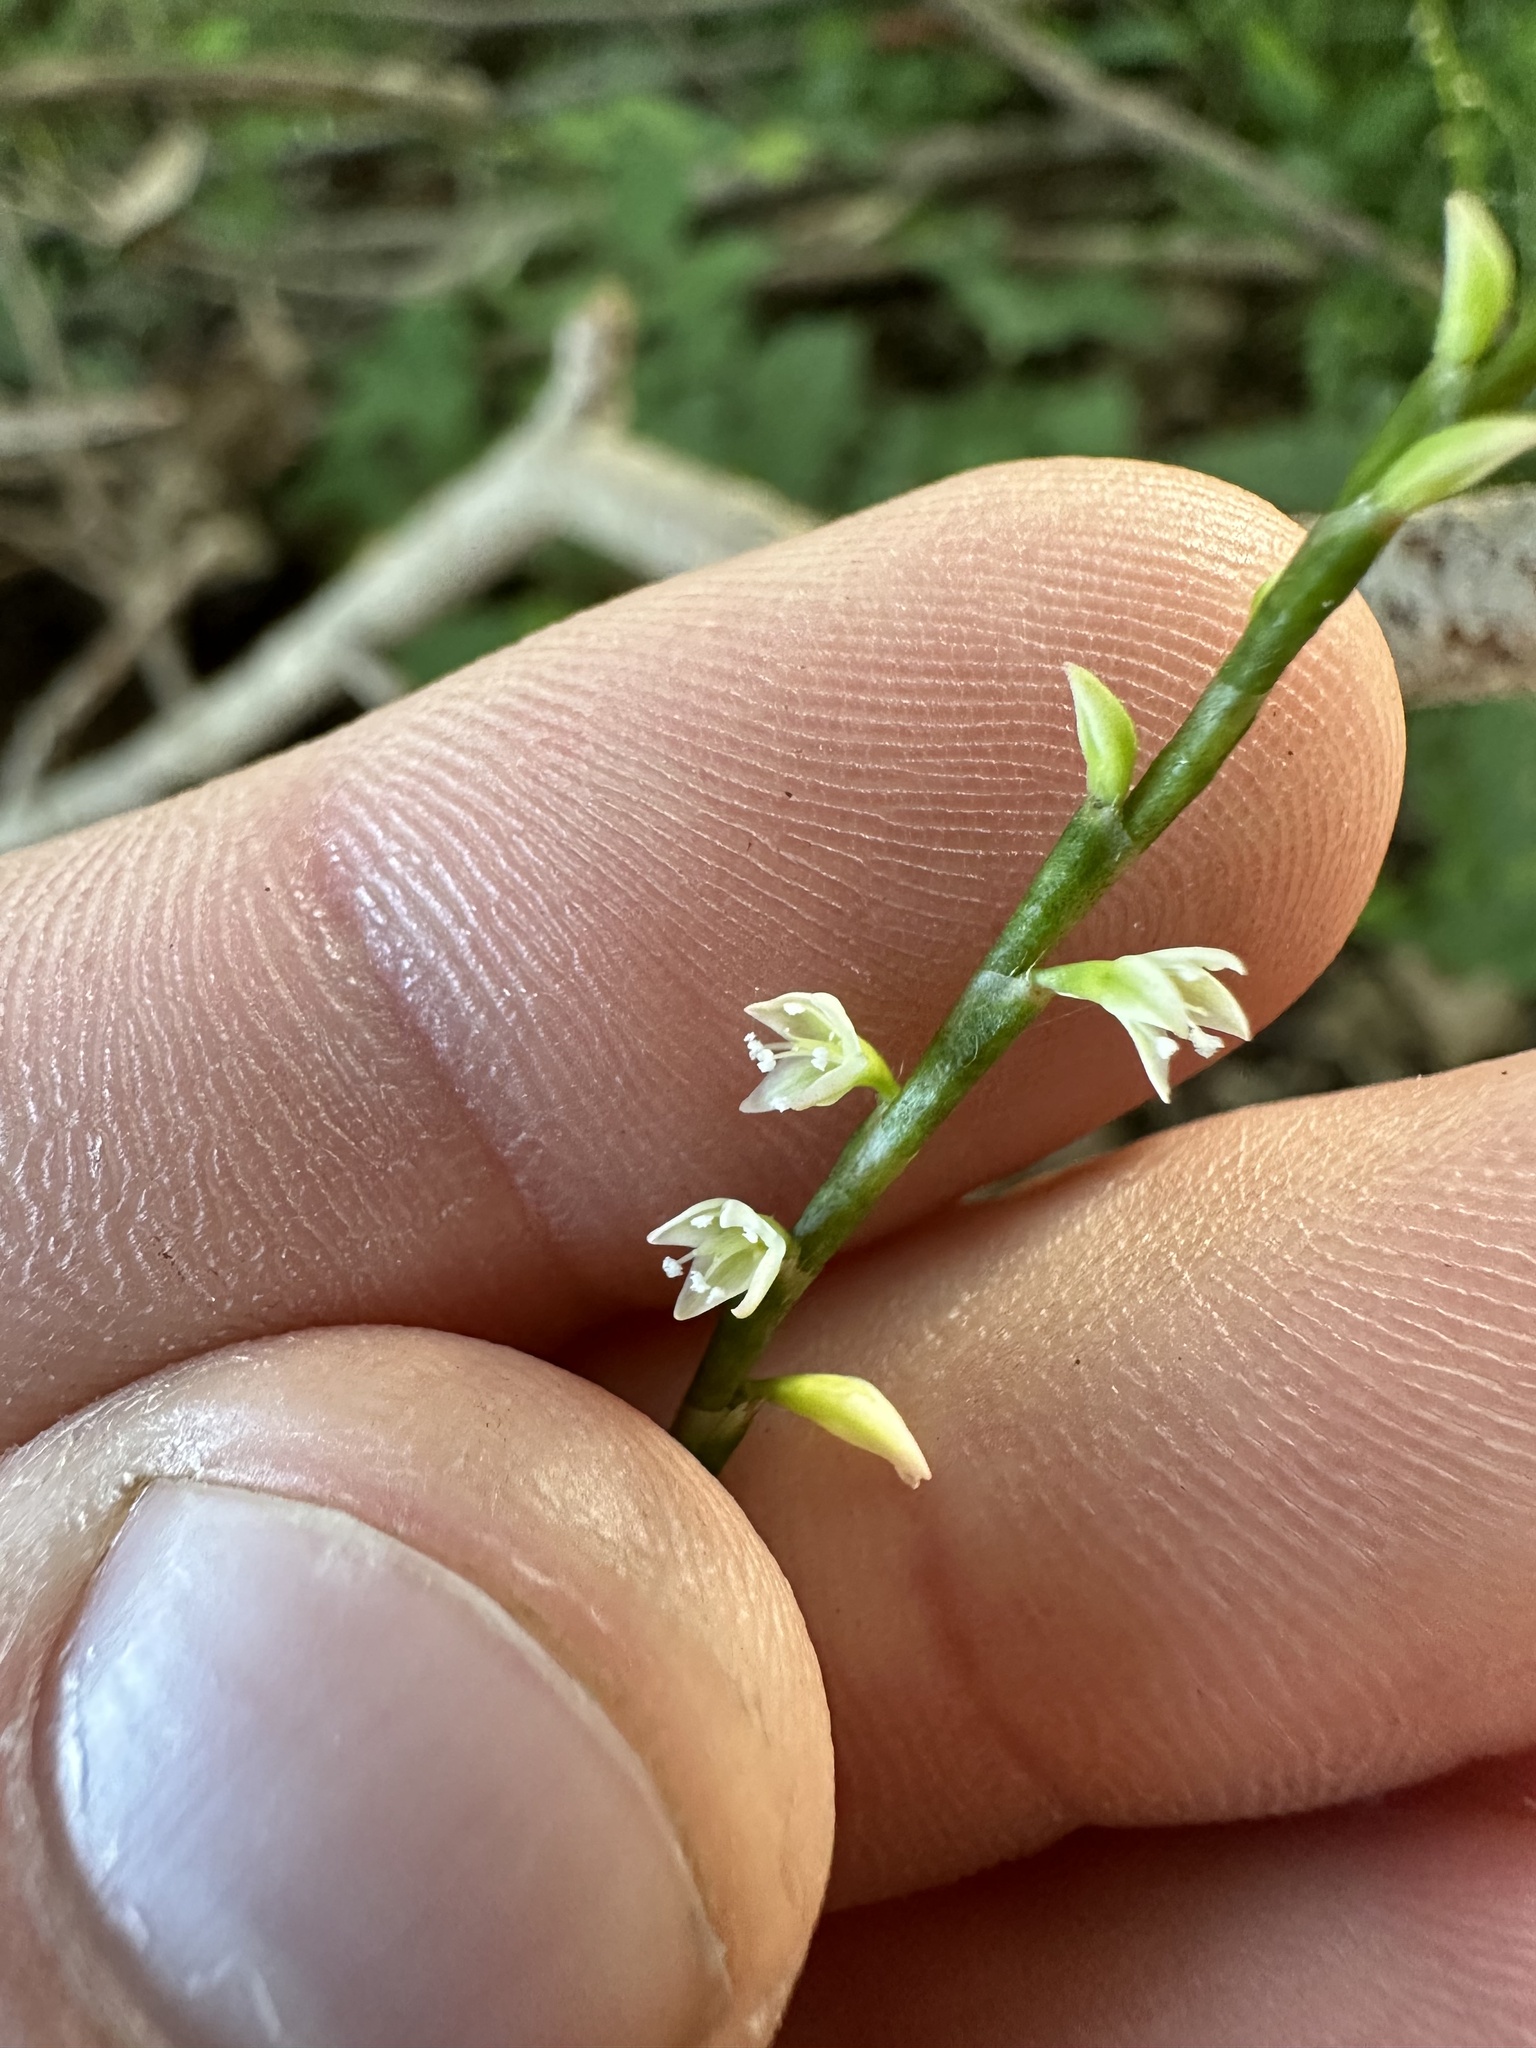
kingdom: Plantae
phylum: Tracheophyta
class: Magnoliopsida
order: Caryophyllales
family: Polygonaceae
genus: Persicaria
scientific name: Persicaria virginiana
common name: Jumpseed
